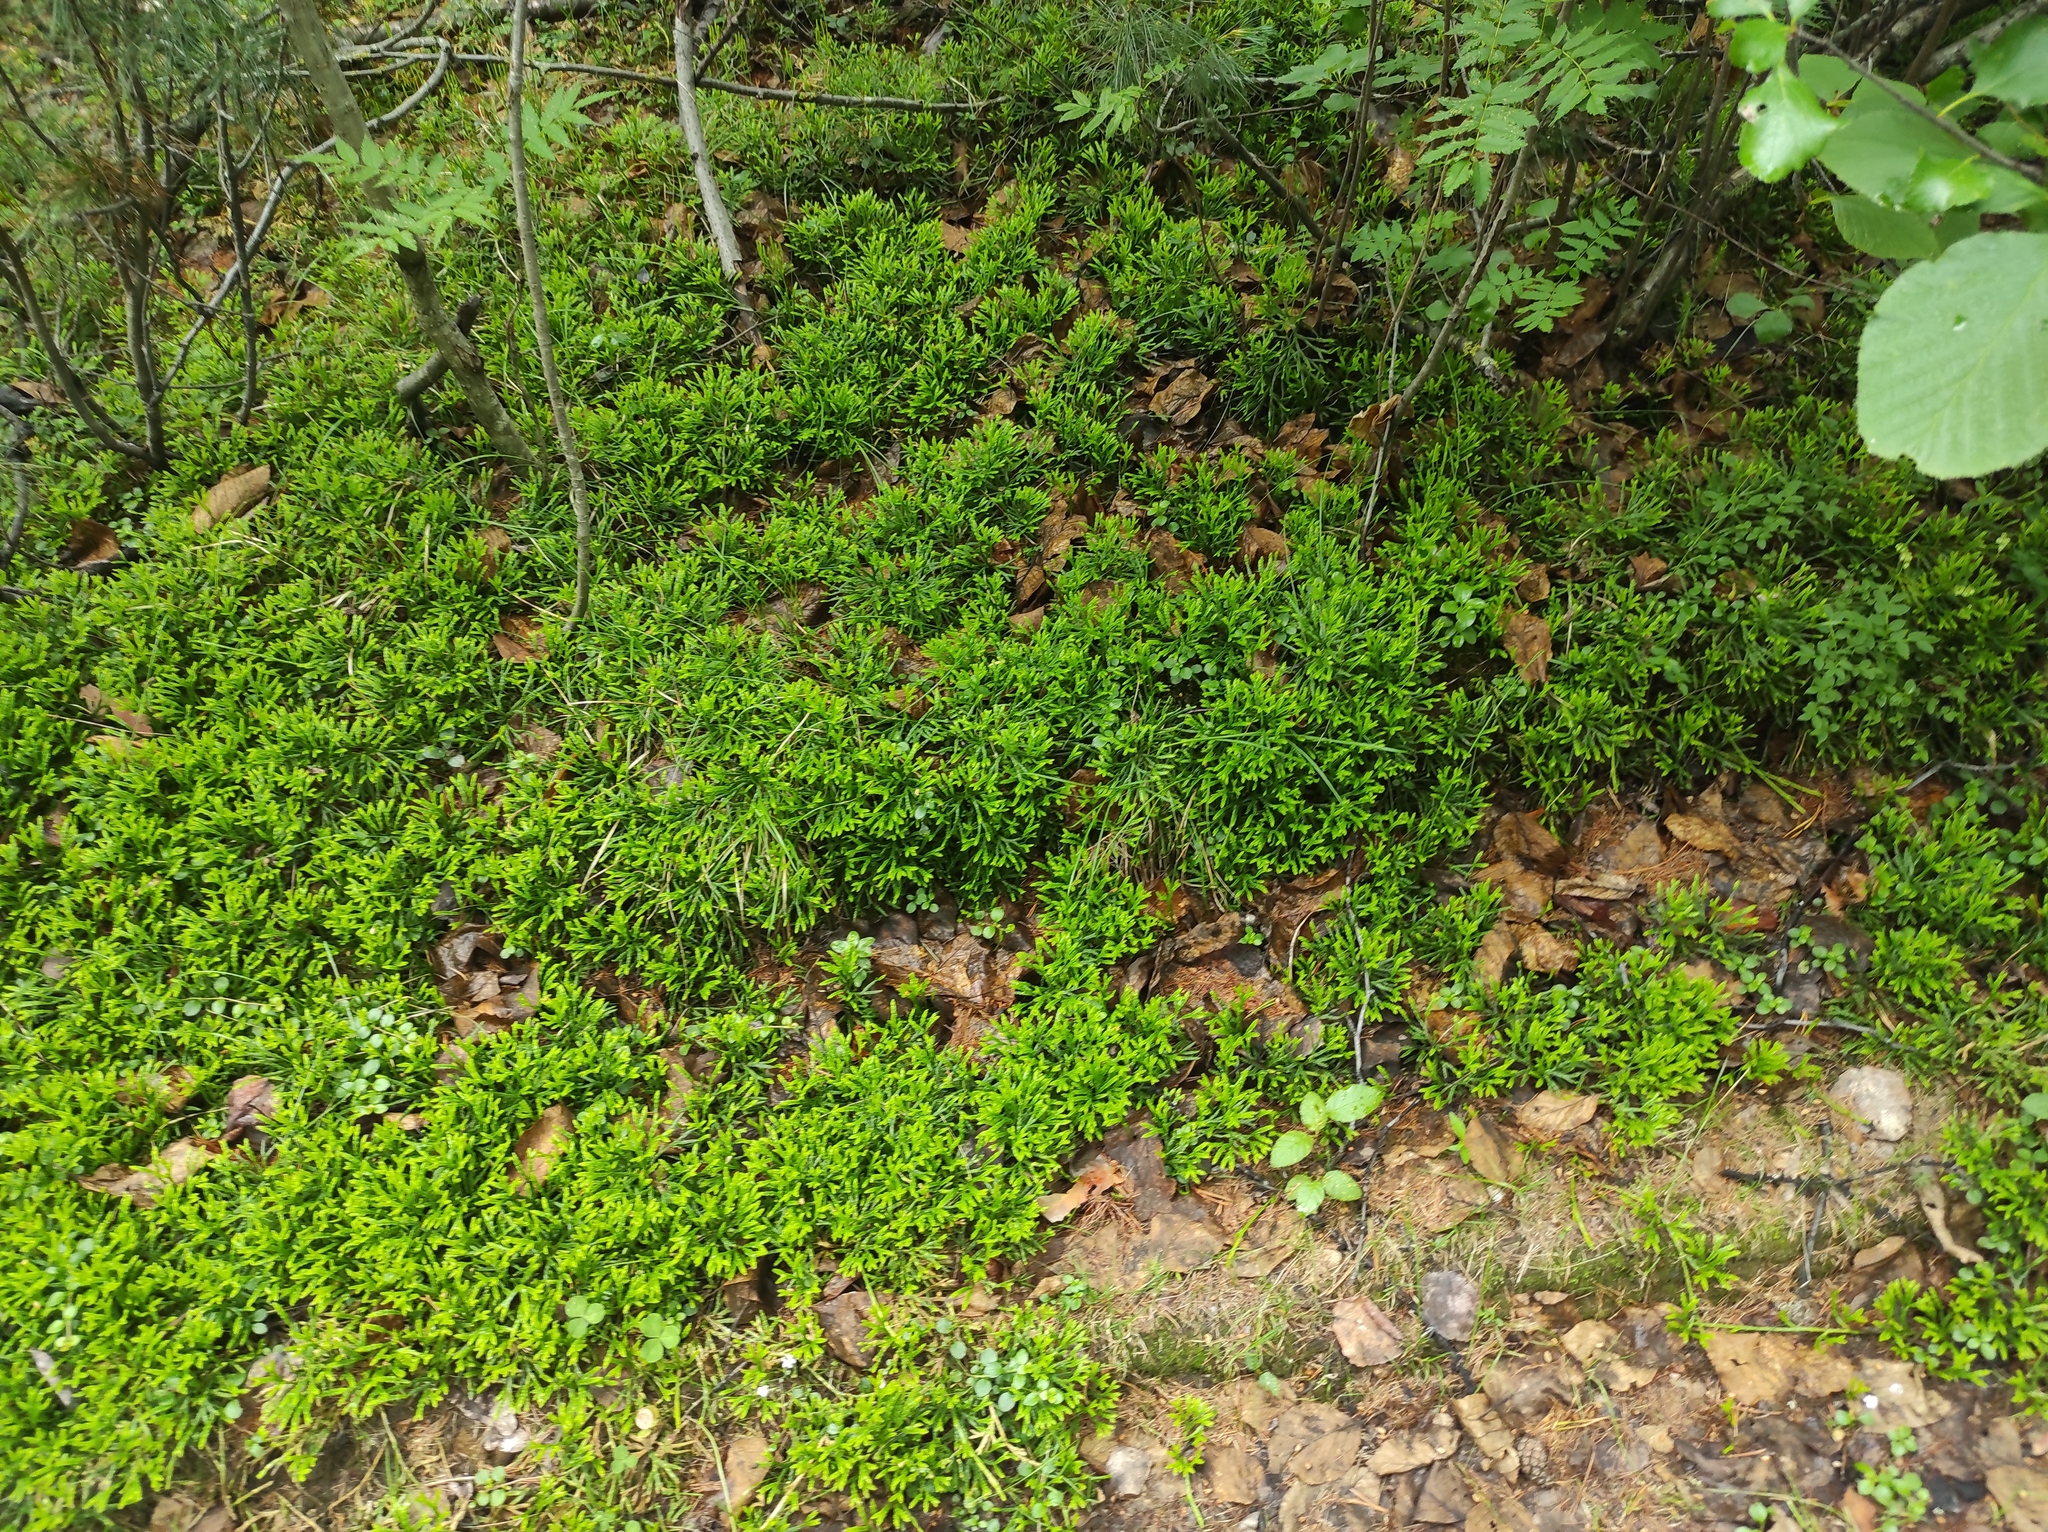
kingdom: Plantae
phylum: Tracheophyta
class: Lycopodiopsida
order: Lycopodiales
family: Lycopodiaceae
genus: Diphasiastrum
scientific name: Diphasiastrum complanatum
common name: Northern running-pine
